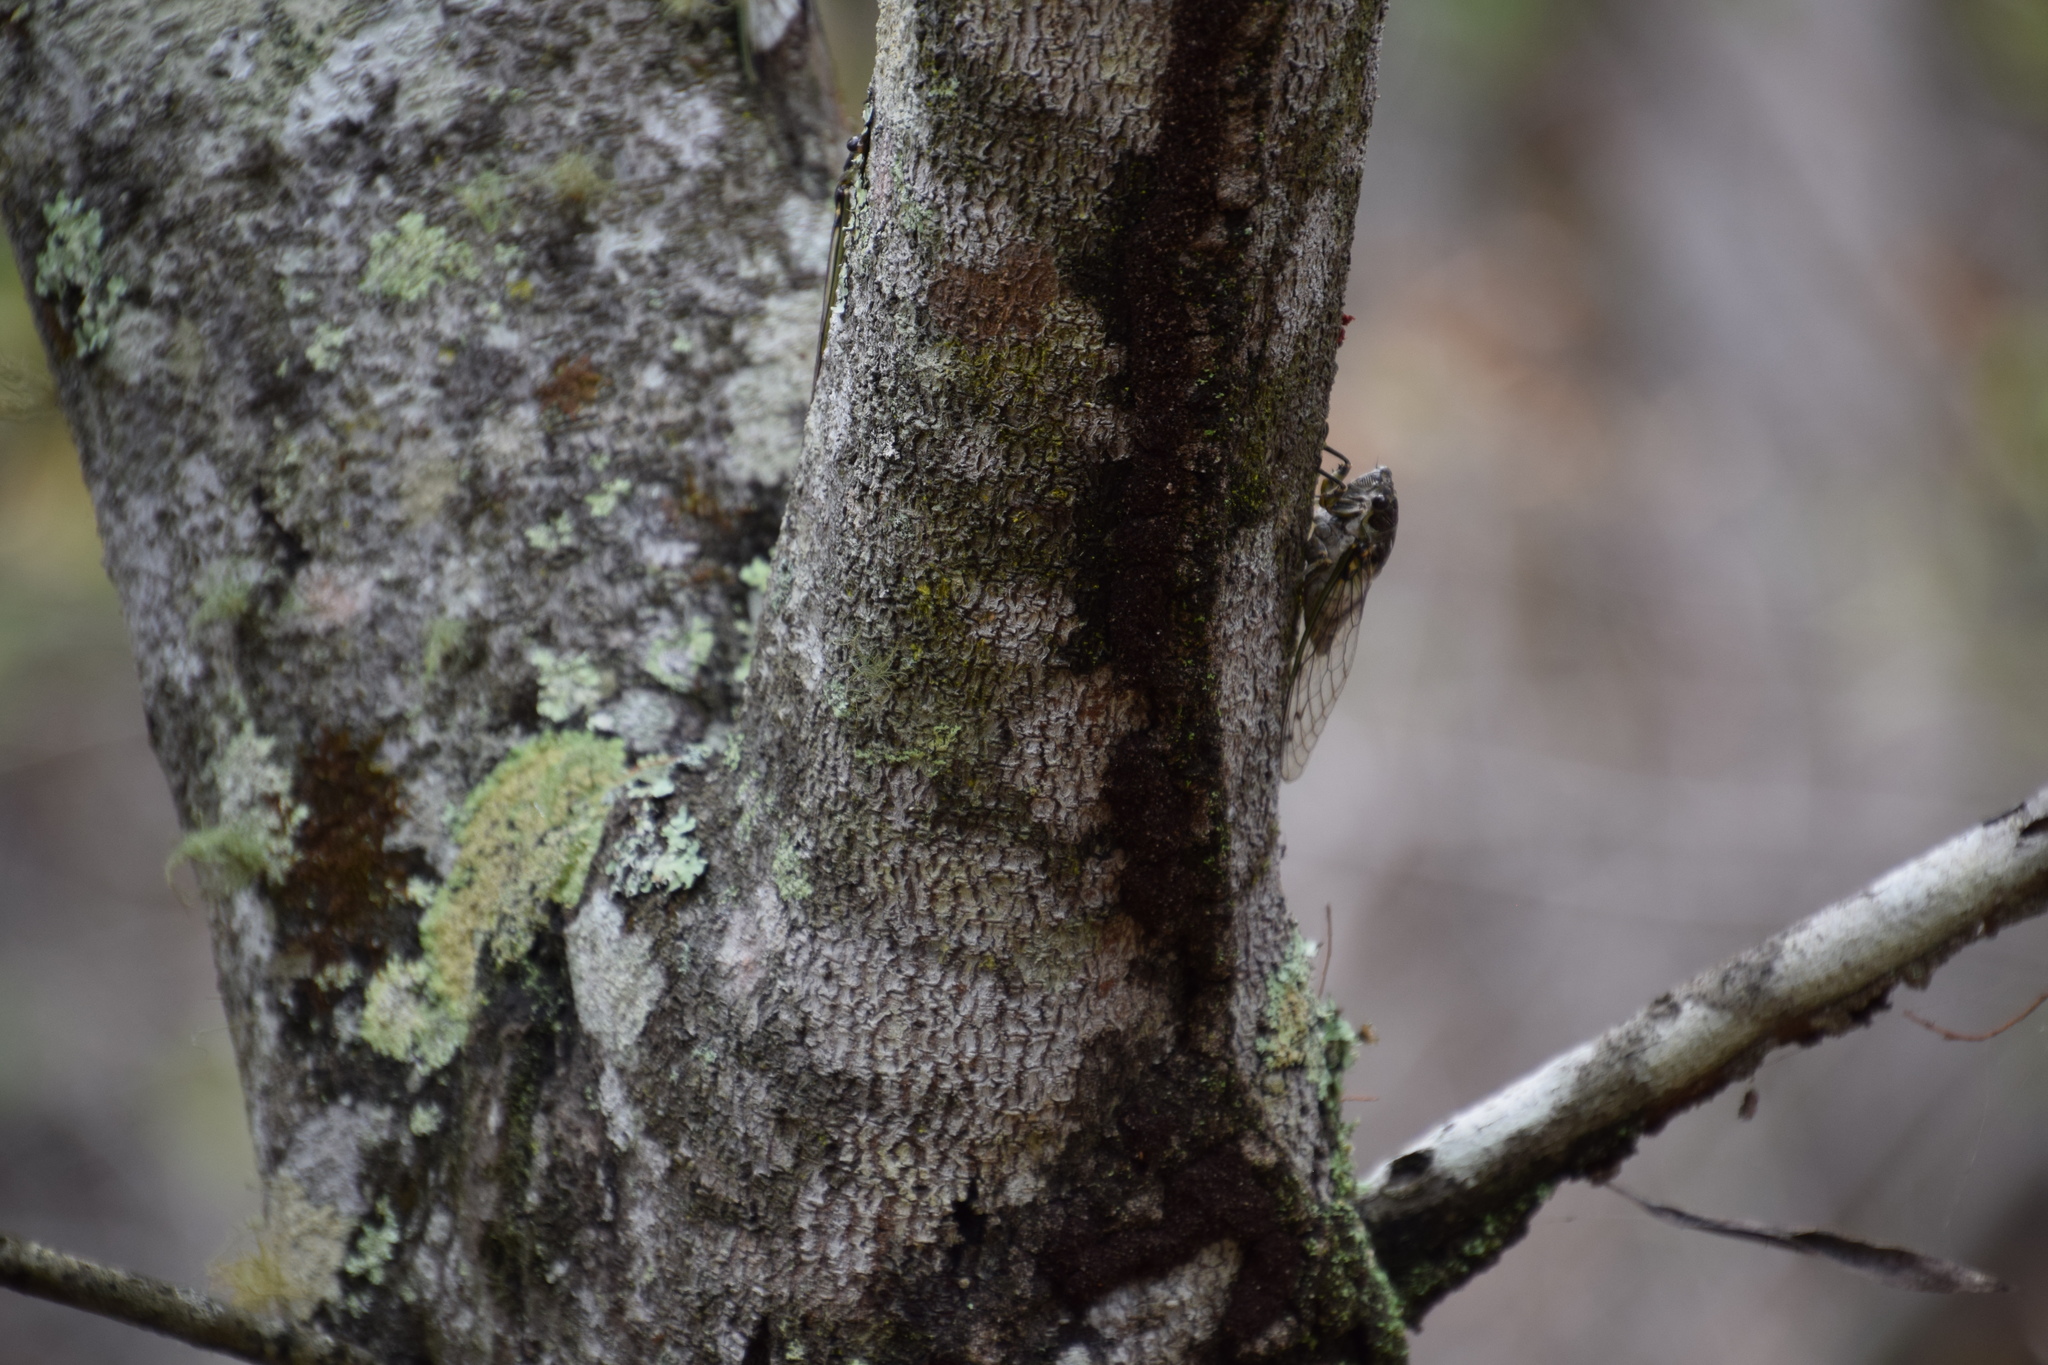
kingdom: Animalia
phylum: Arthropoda
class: Insecta
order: Hemiptera
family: Cicadidae
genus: Arunta
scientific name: Arunta perulata
